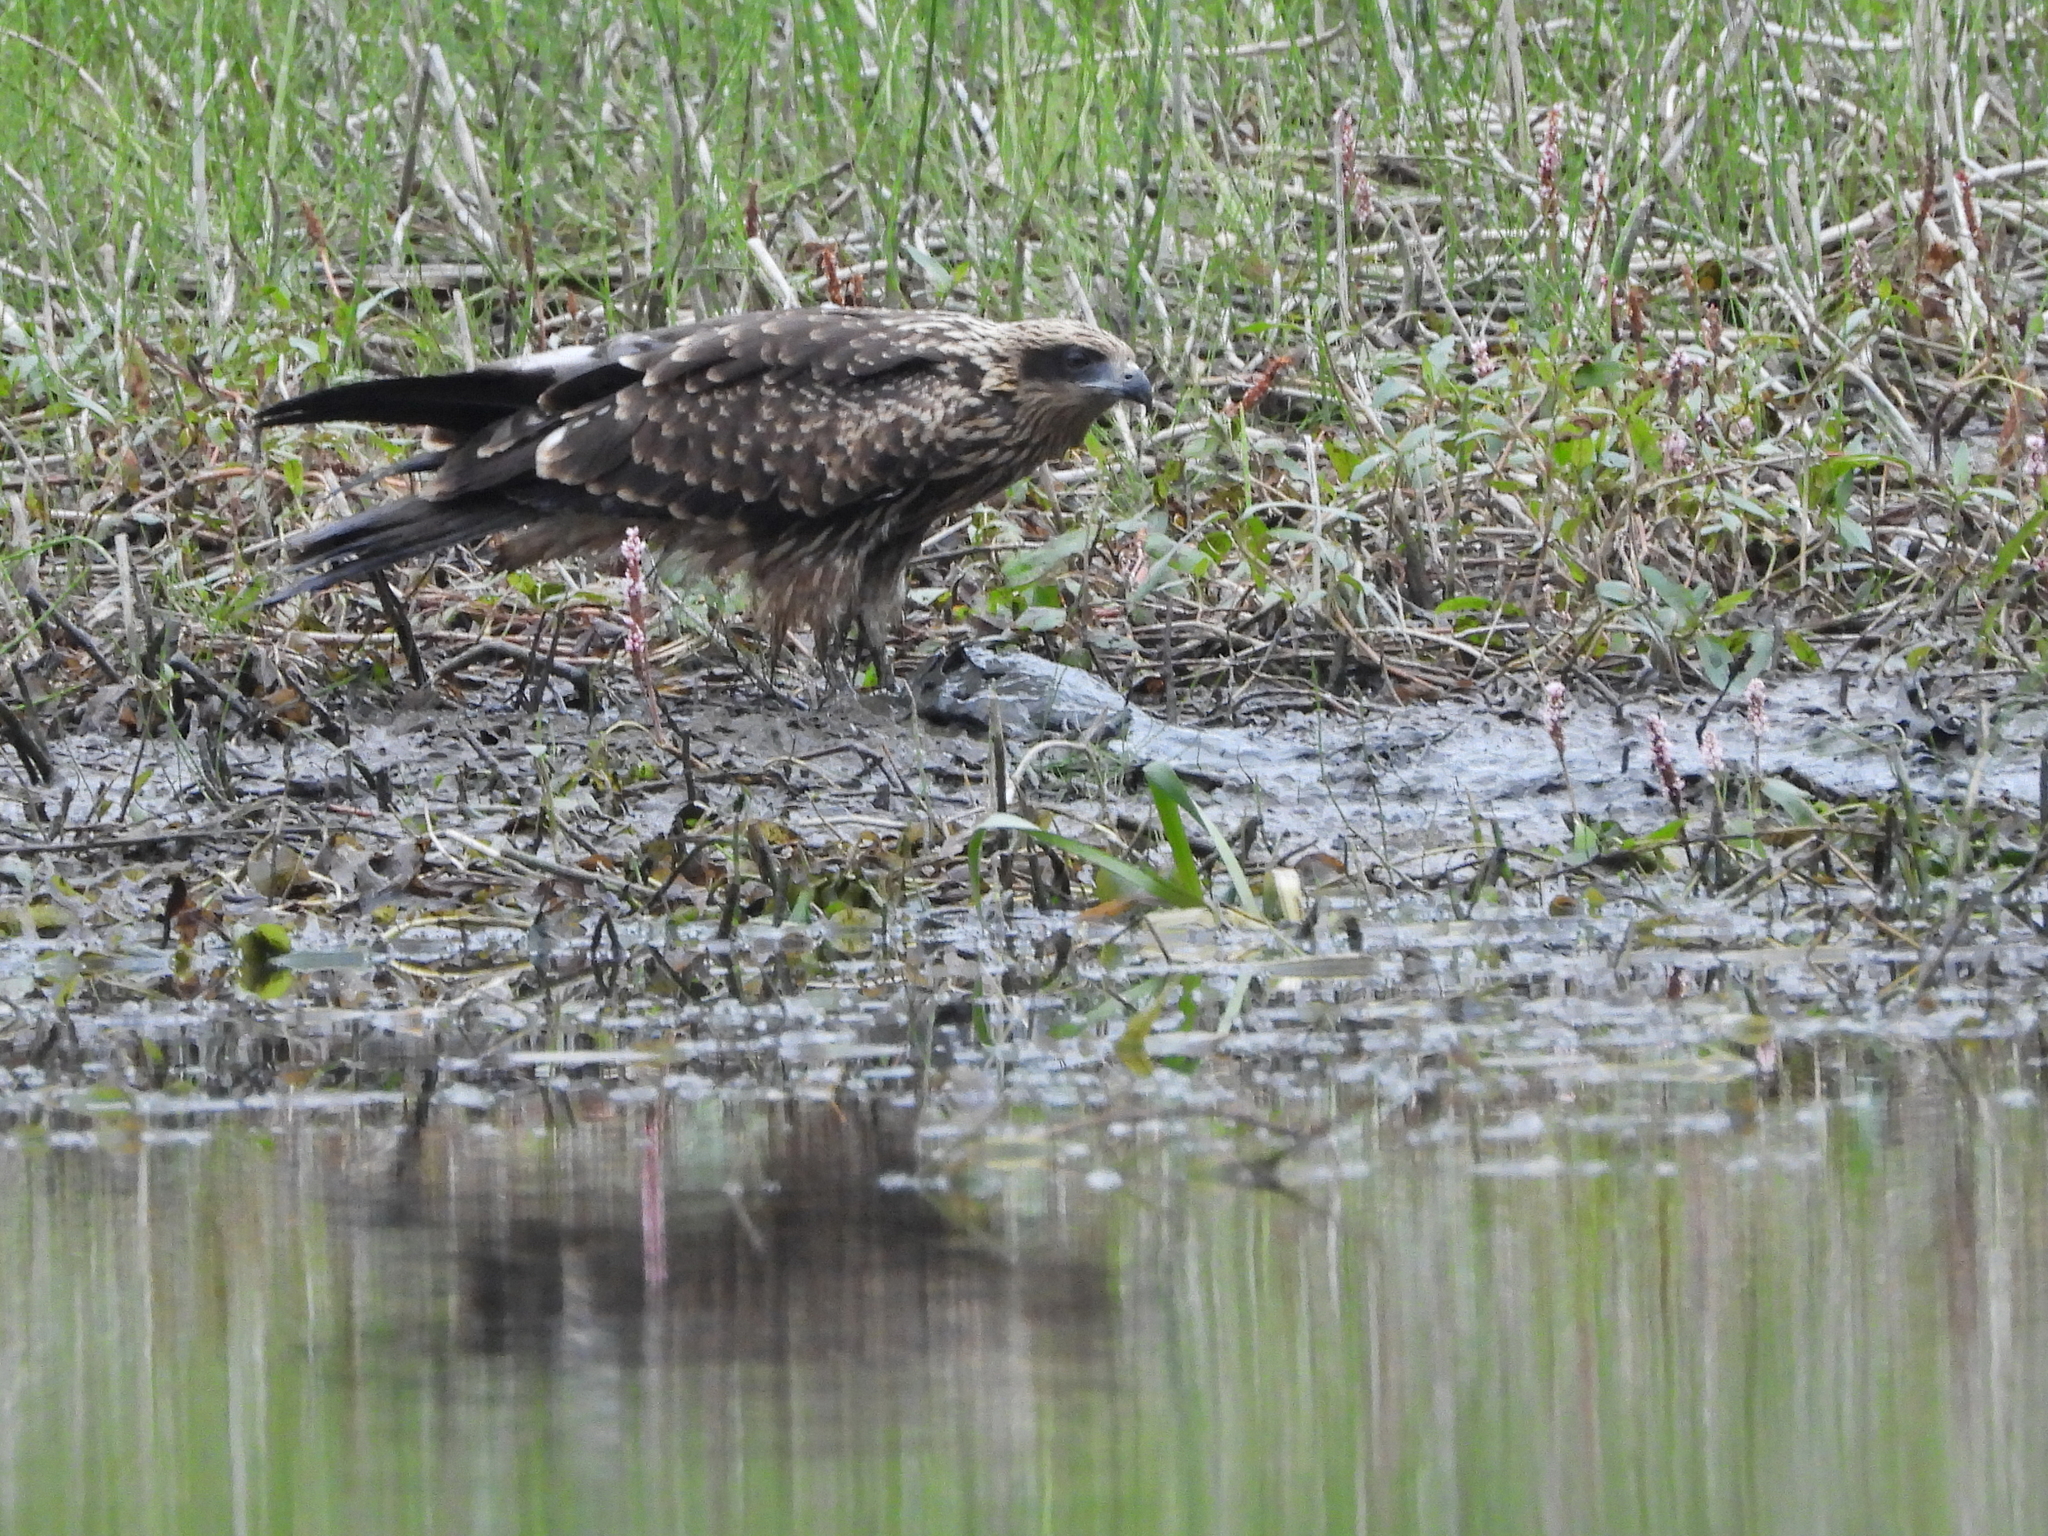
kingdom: Animalia
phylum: Chordata
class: Aves
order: Accipitriformes
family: Accipitridae
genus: Milvus
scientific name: Milvus migrans
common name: Black kite
